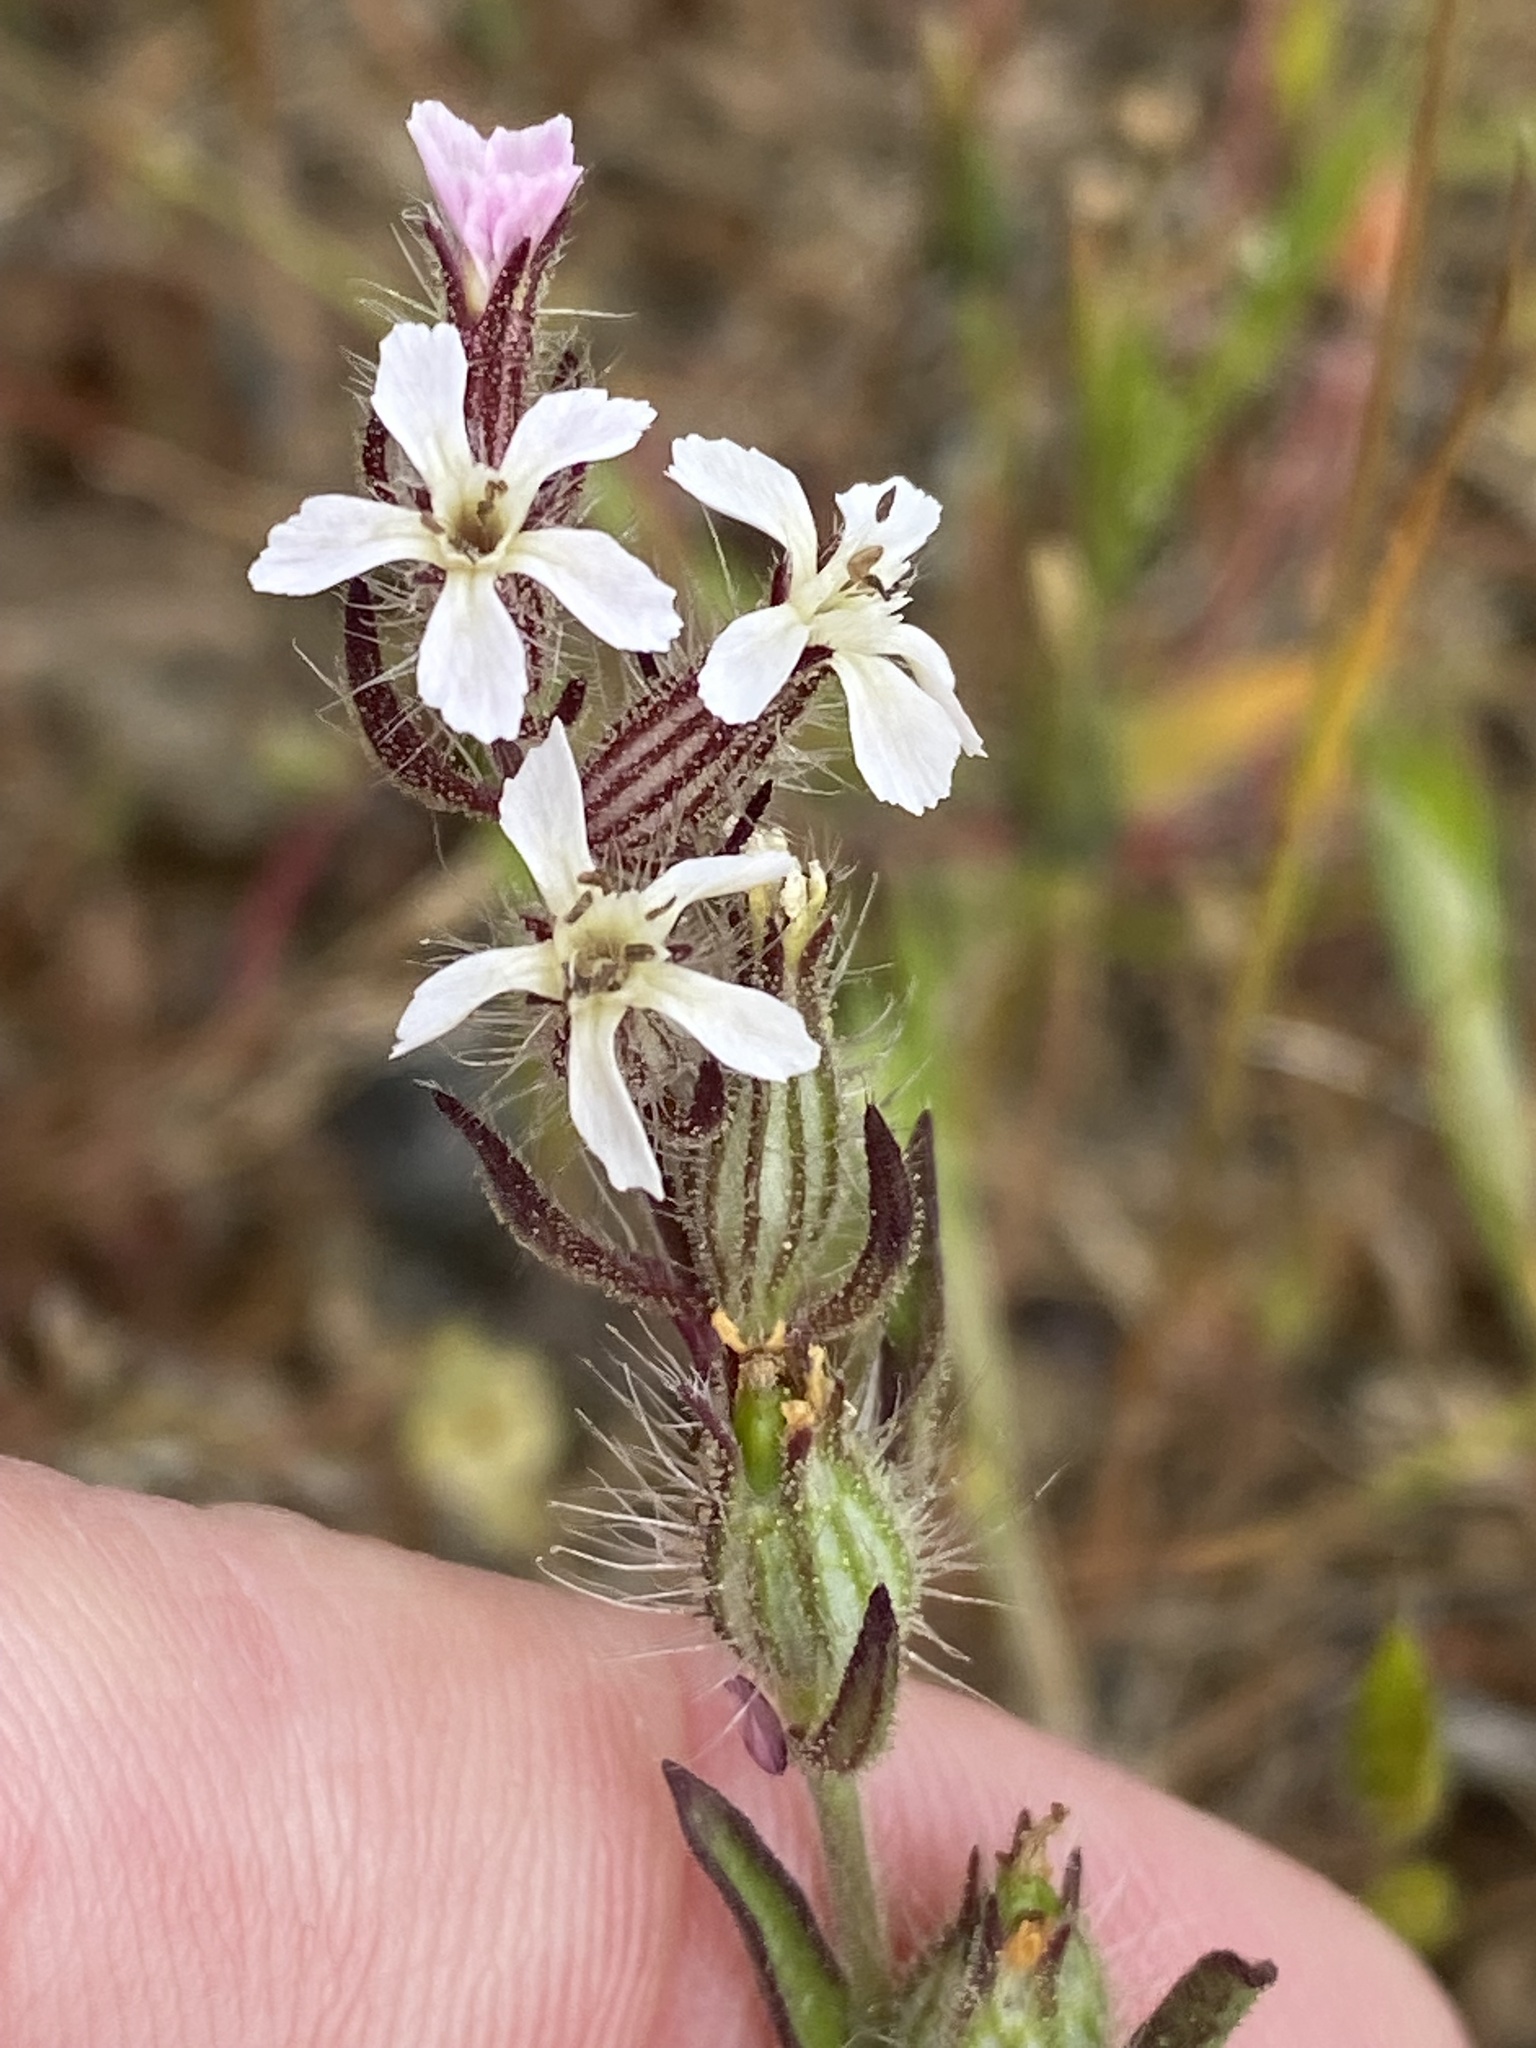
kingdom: Plantae
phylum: Tracheophyta
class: Magnoliopsida
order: Caryophyllales
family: Caryophyllaceae
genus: Silene
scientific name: Silene gallica
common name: Small-flowered catchfly
